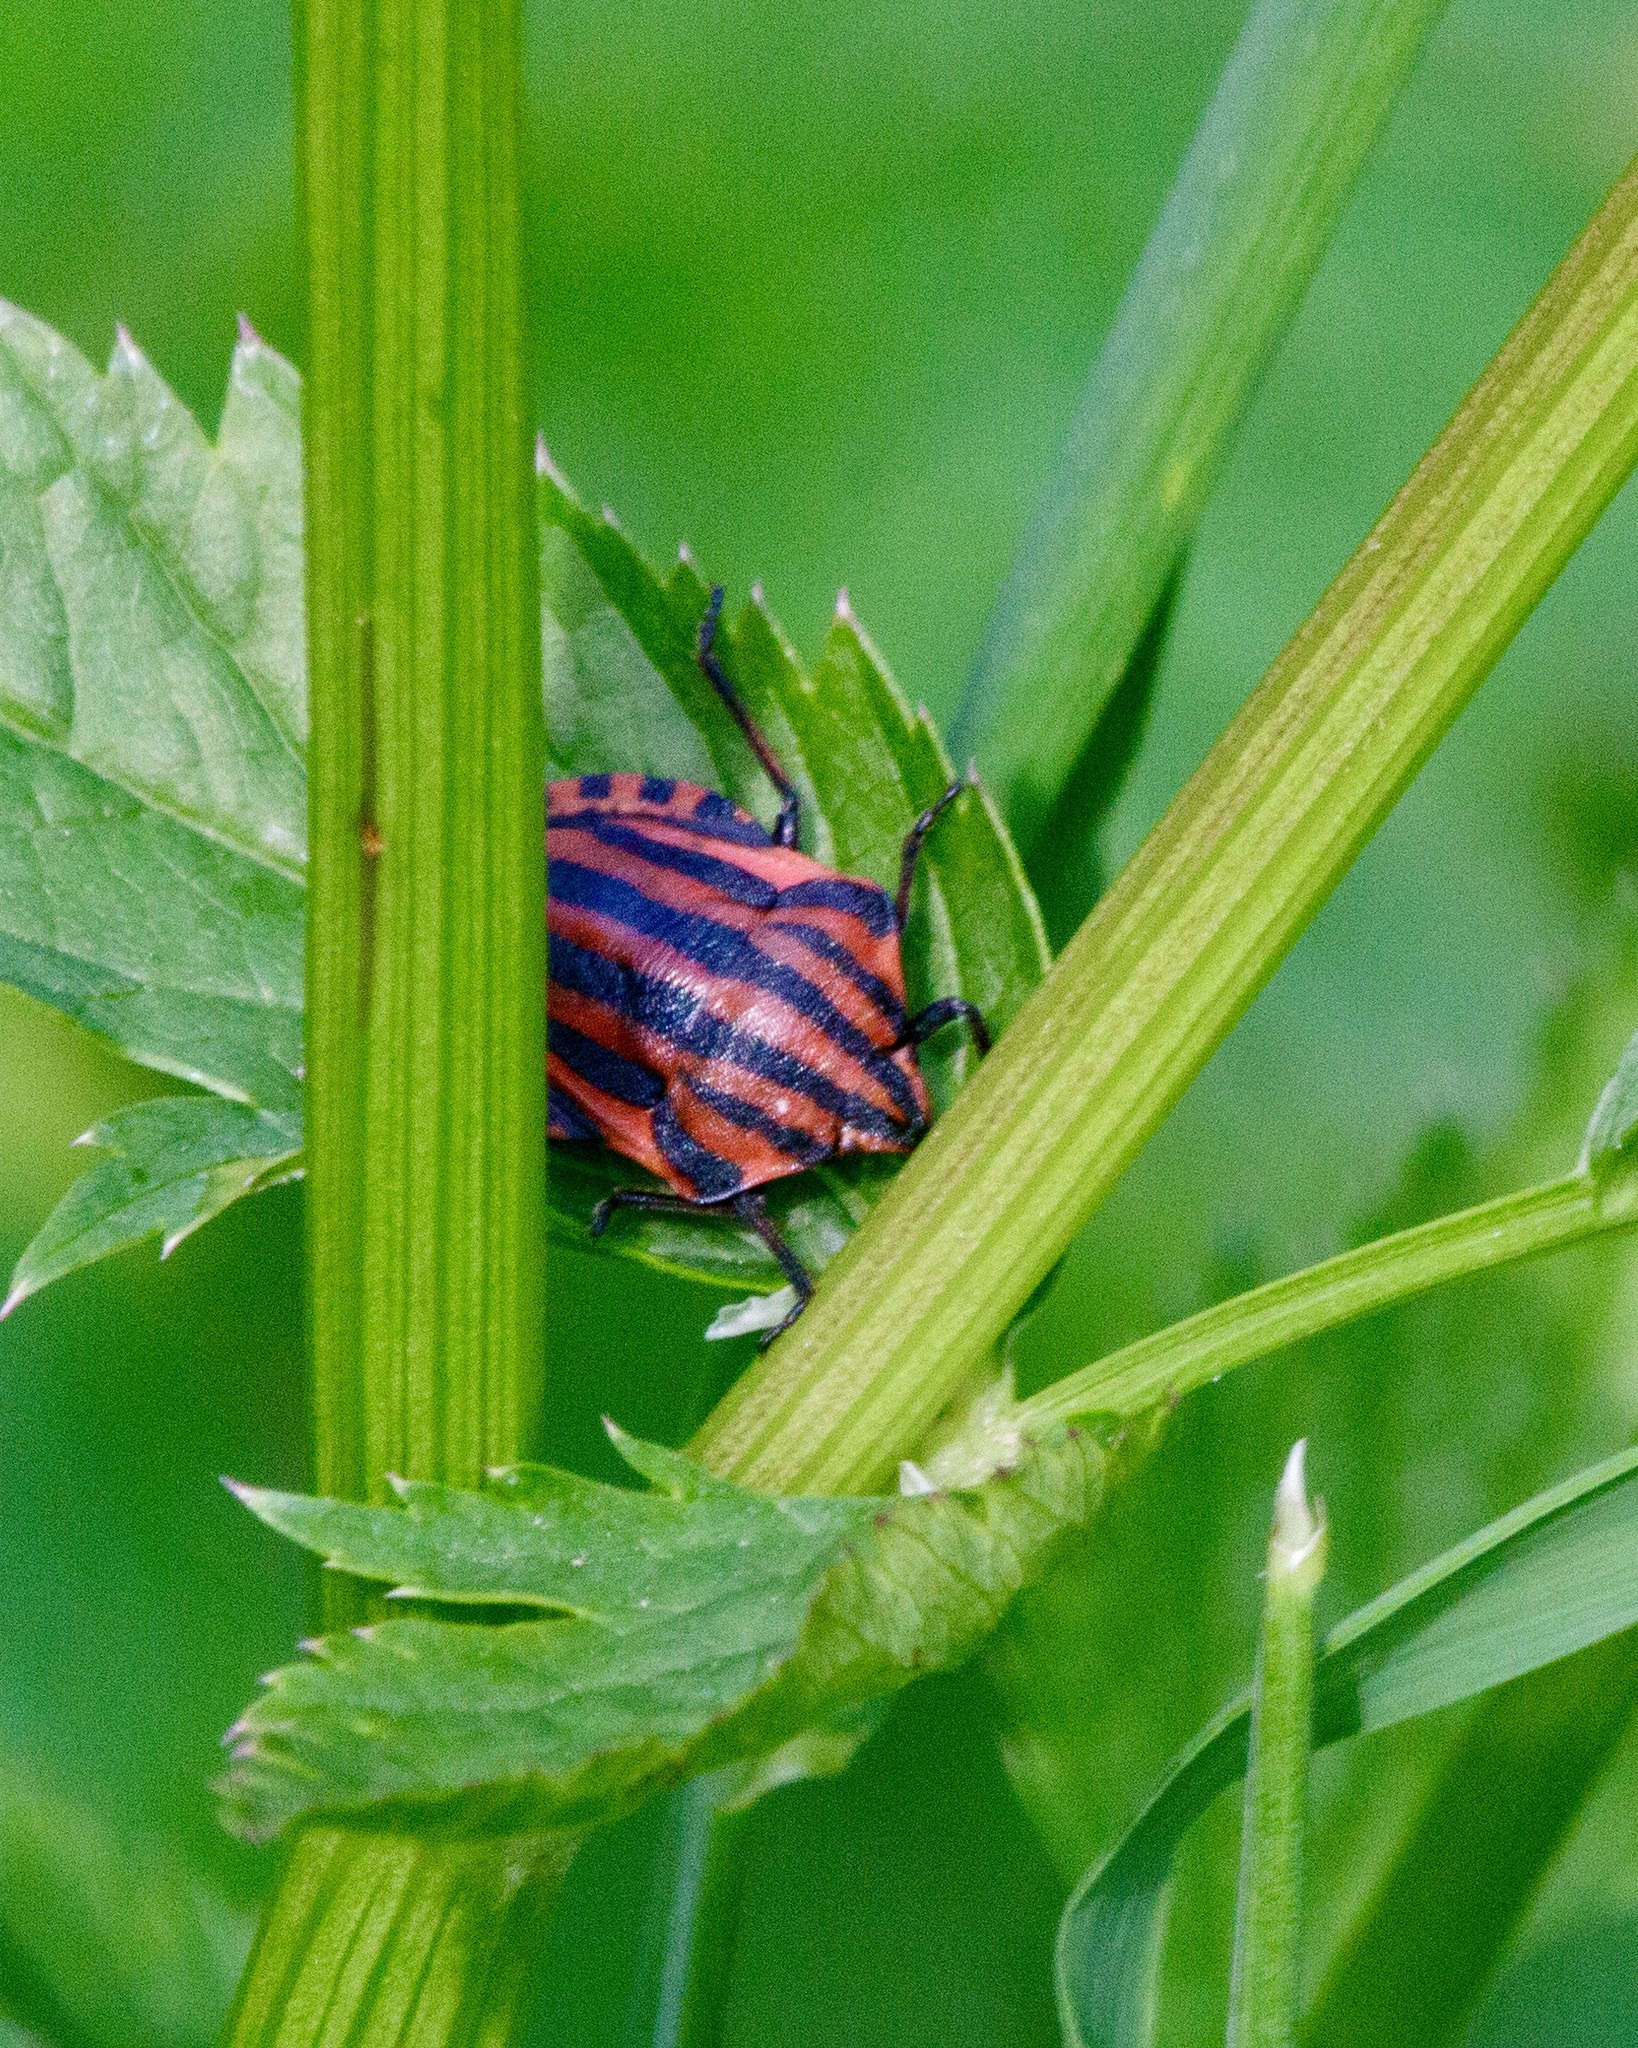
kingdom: Animalia
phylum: Arthropoda
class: Insecta
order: Hemiptera
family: Pentatomidae
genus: Graphosoma
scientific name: Graphosoma italicum
